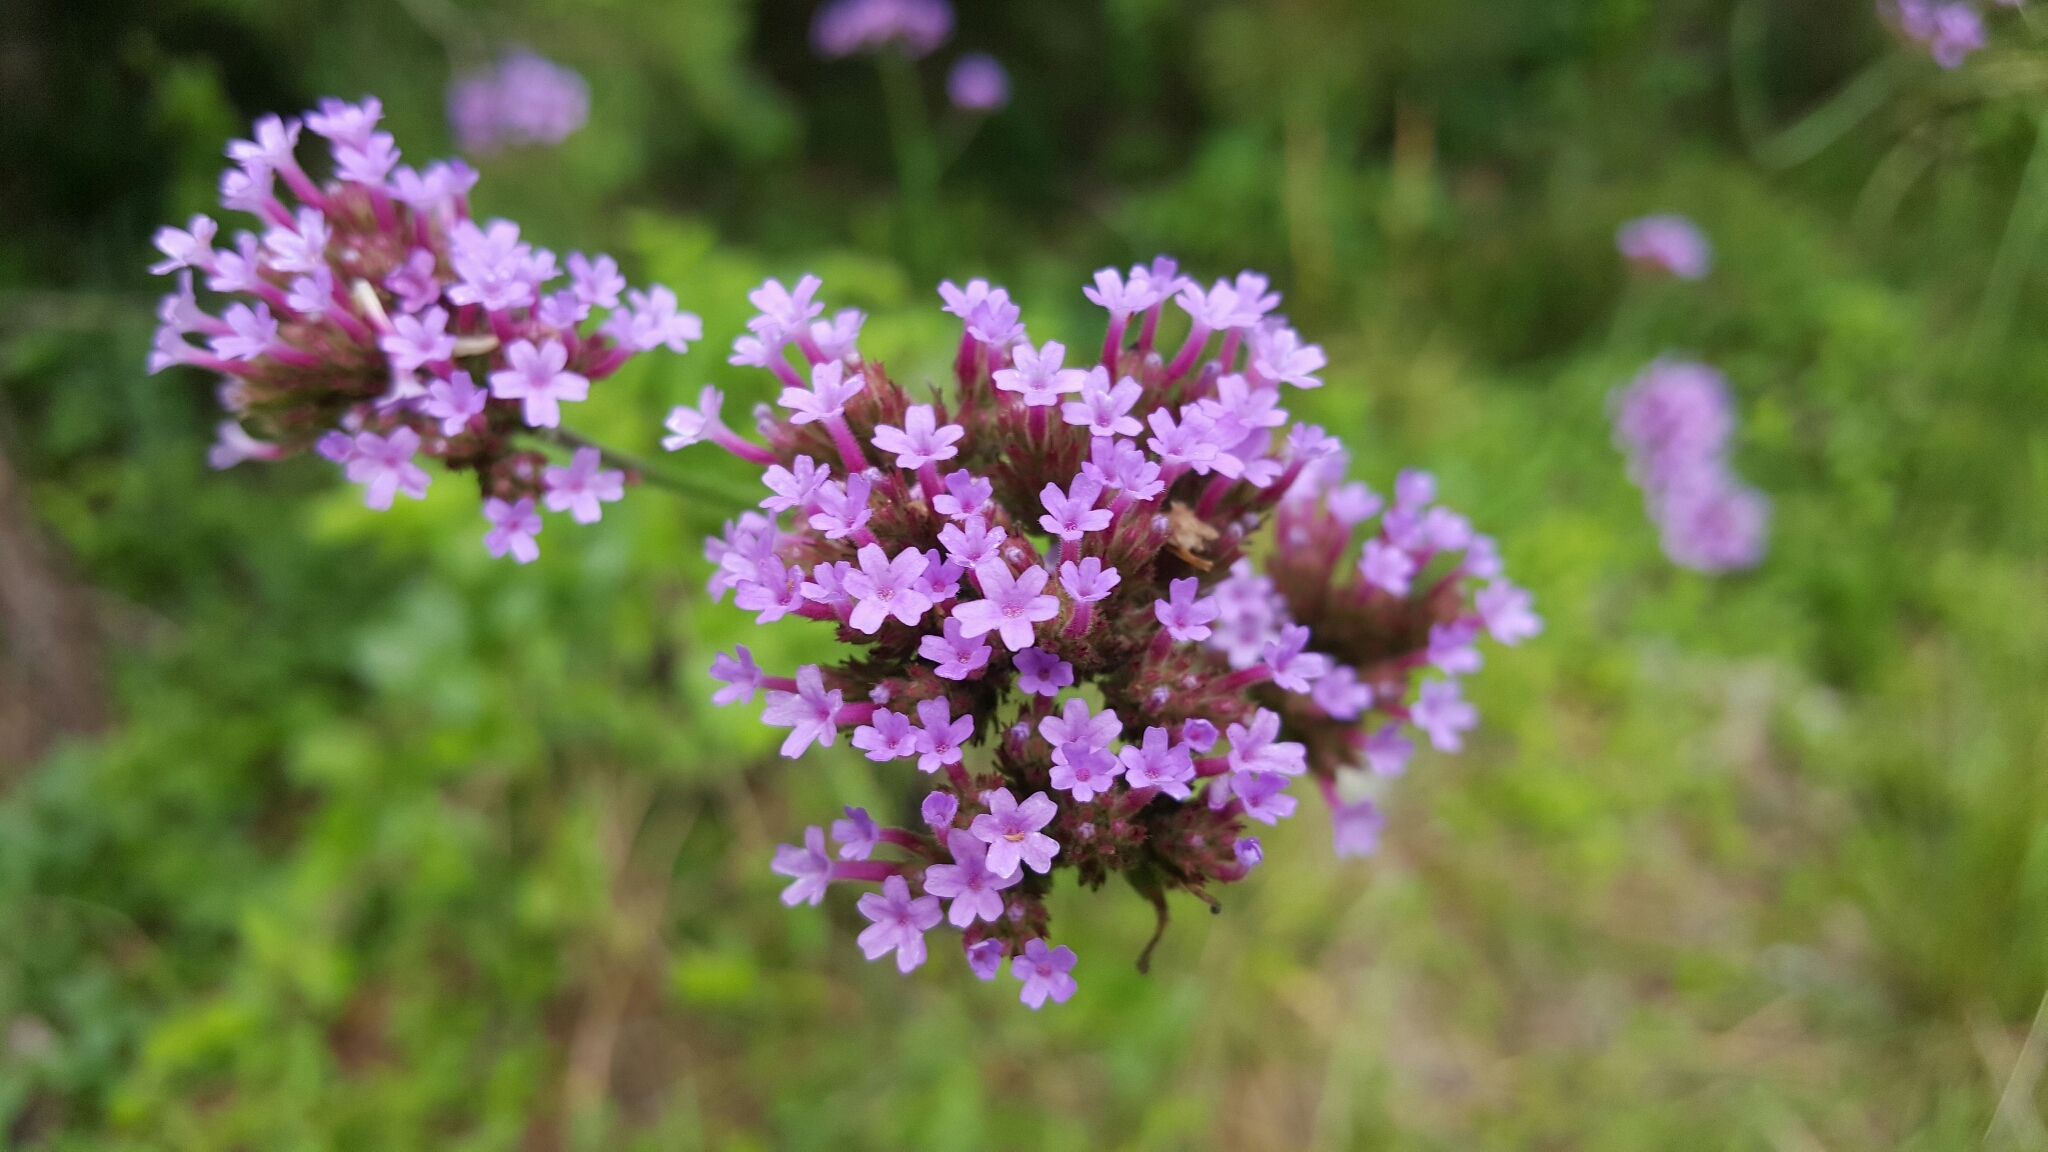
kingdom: Plantae
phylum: Tracheophyta
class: Magnoliopsida
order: Lamiales
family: Verbenaceae
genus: Verbena
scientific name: Verbena brasiliensis
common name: Brazilian vervain
